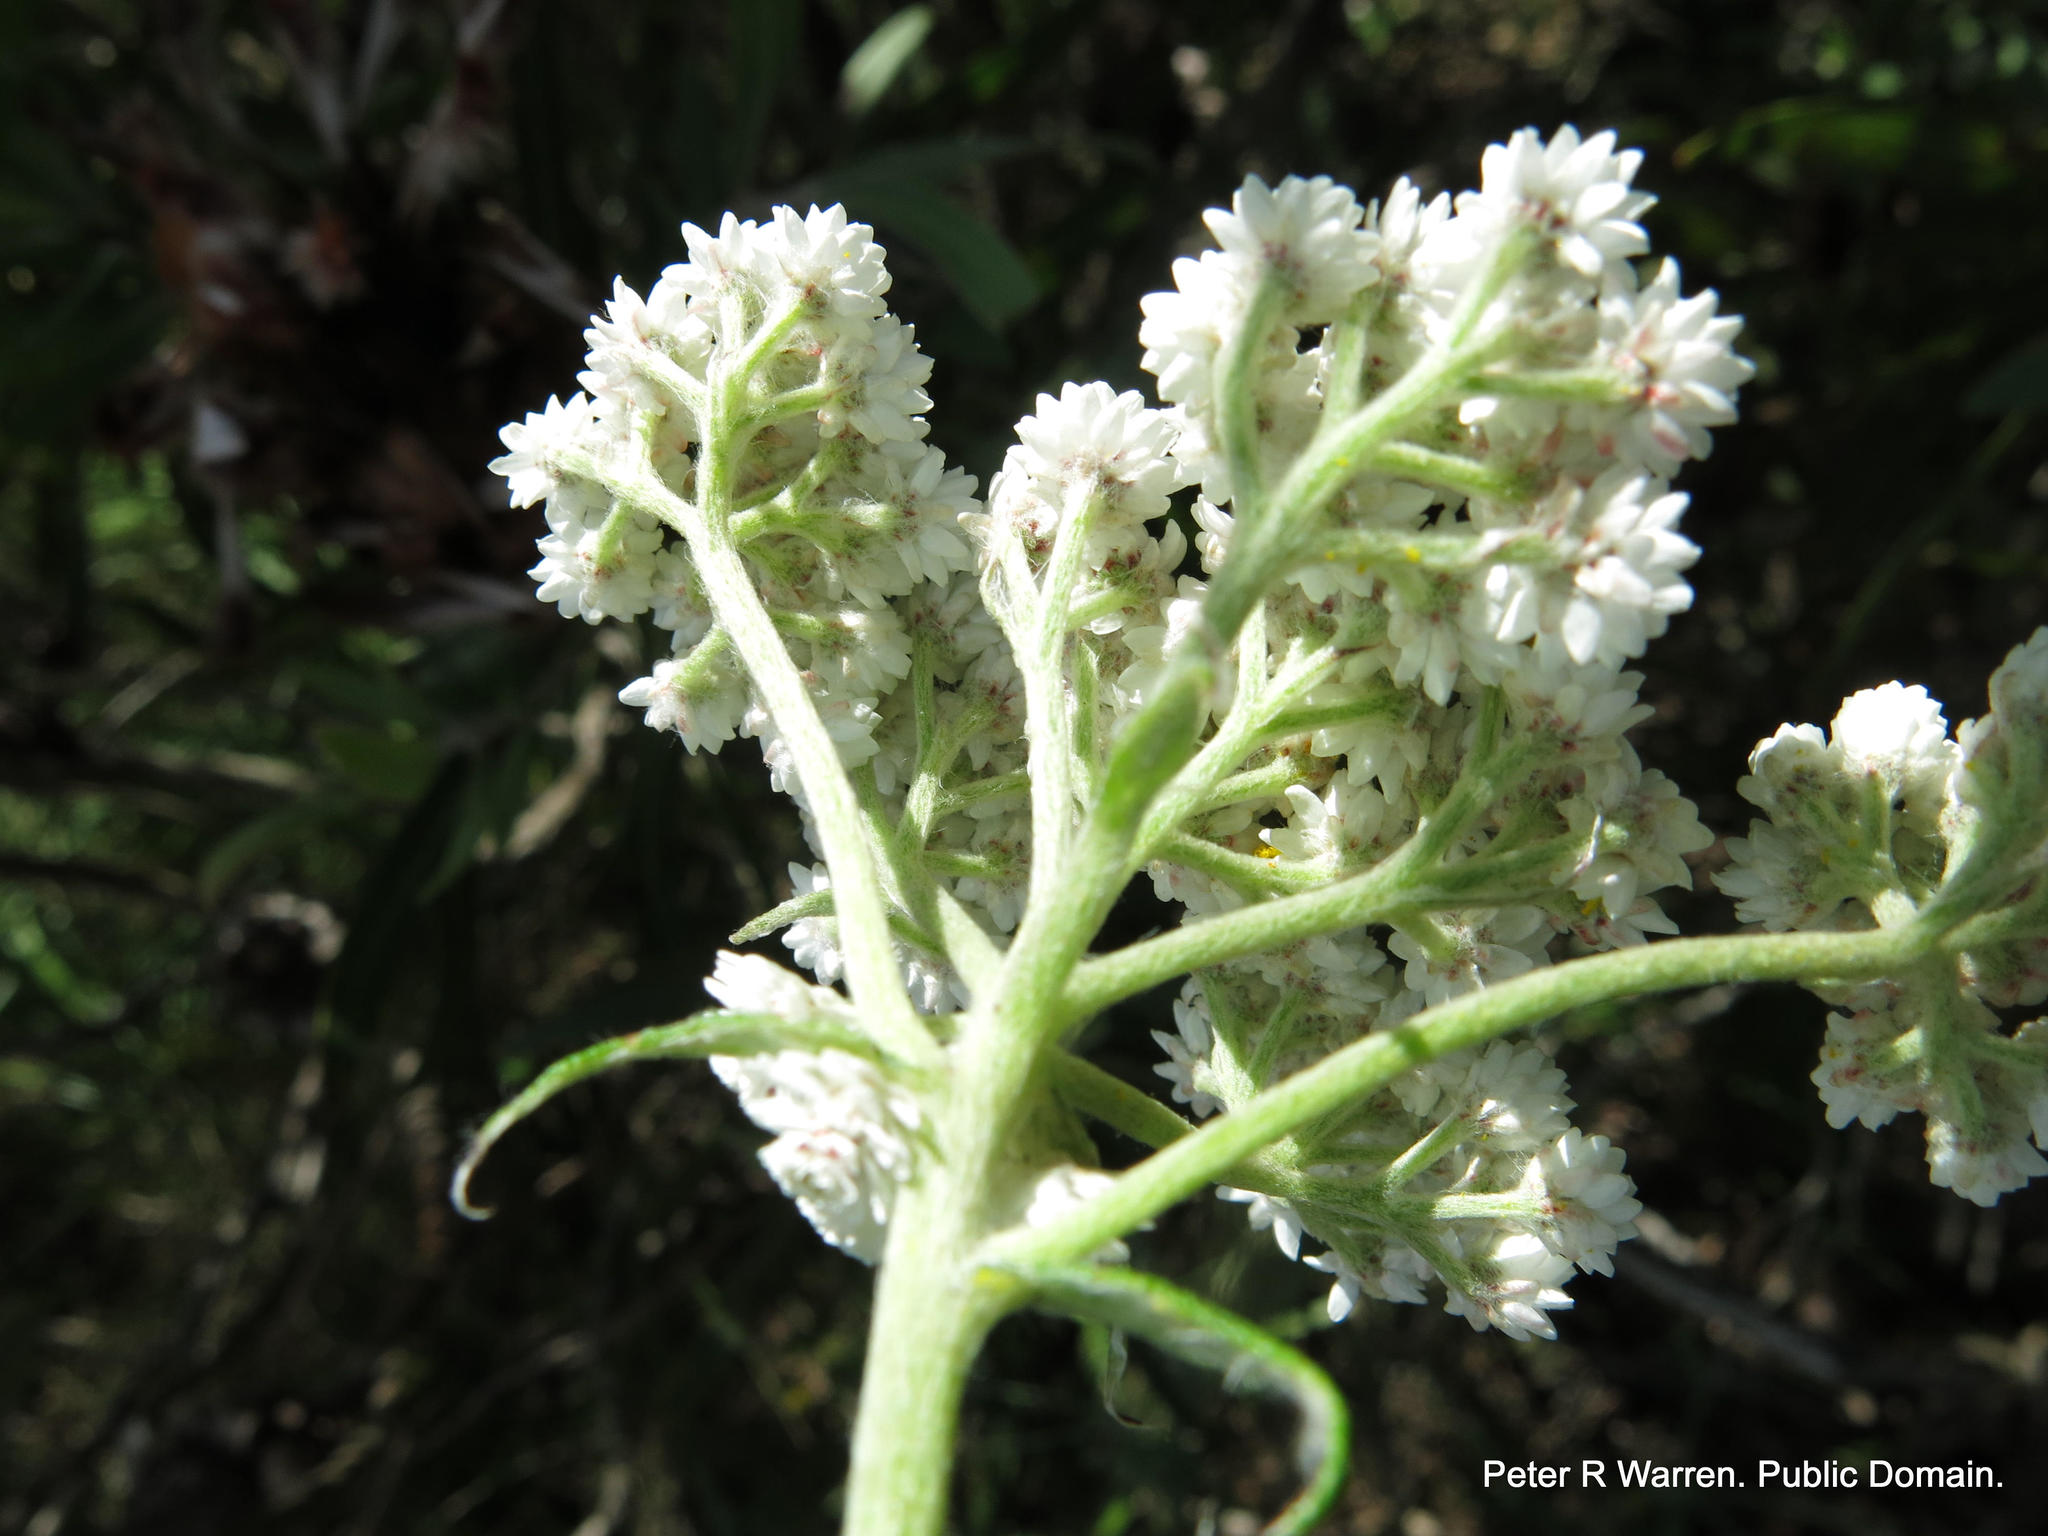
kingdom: Plantae
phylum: Tracheophyta
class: Magnoliopsida
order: Asterales
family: Asteraceae
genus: Helichrysum
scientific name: Helichrysum felinum
